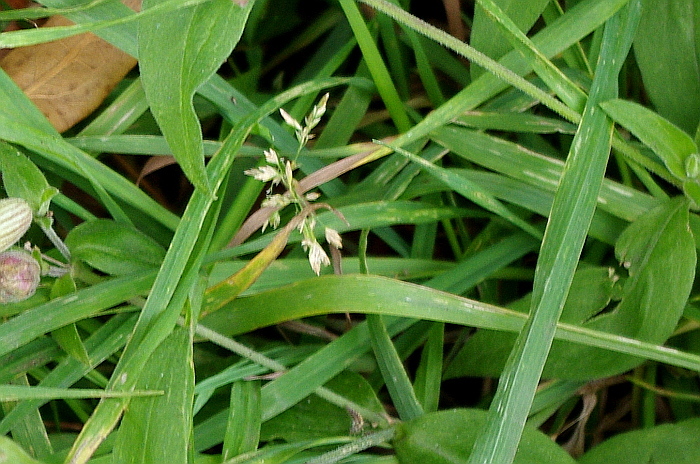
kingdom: Plantae
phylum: Tracheophyta
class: Liliopsida
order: Poales
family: Poaceae
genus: Poa
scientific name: Poa annua
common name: Annual bluegrass
